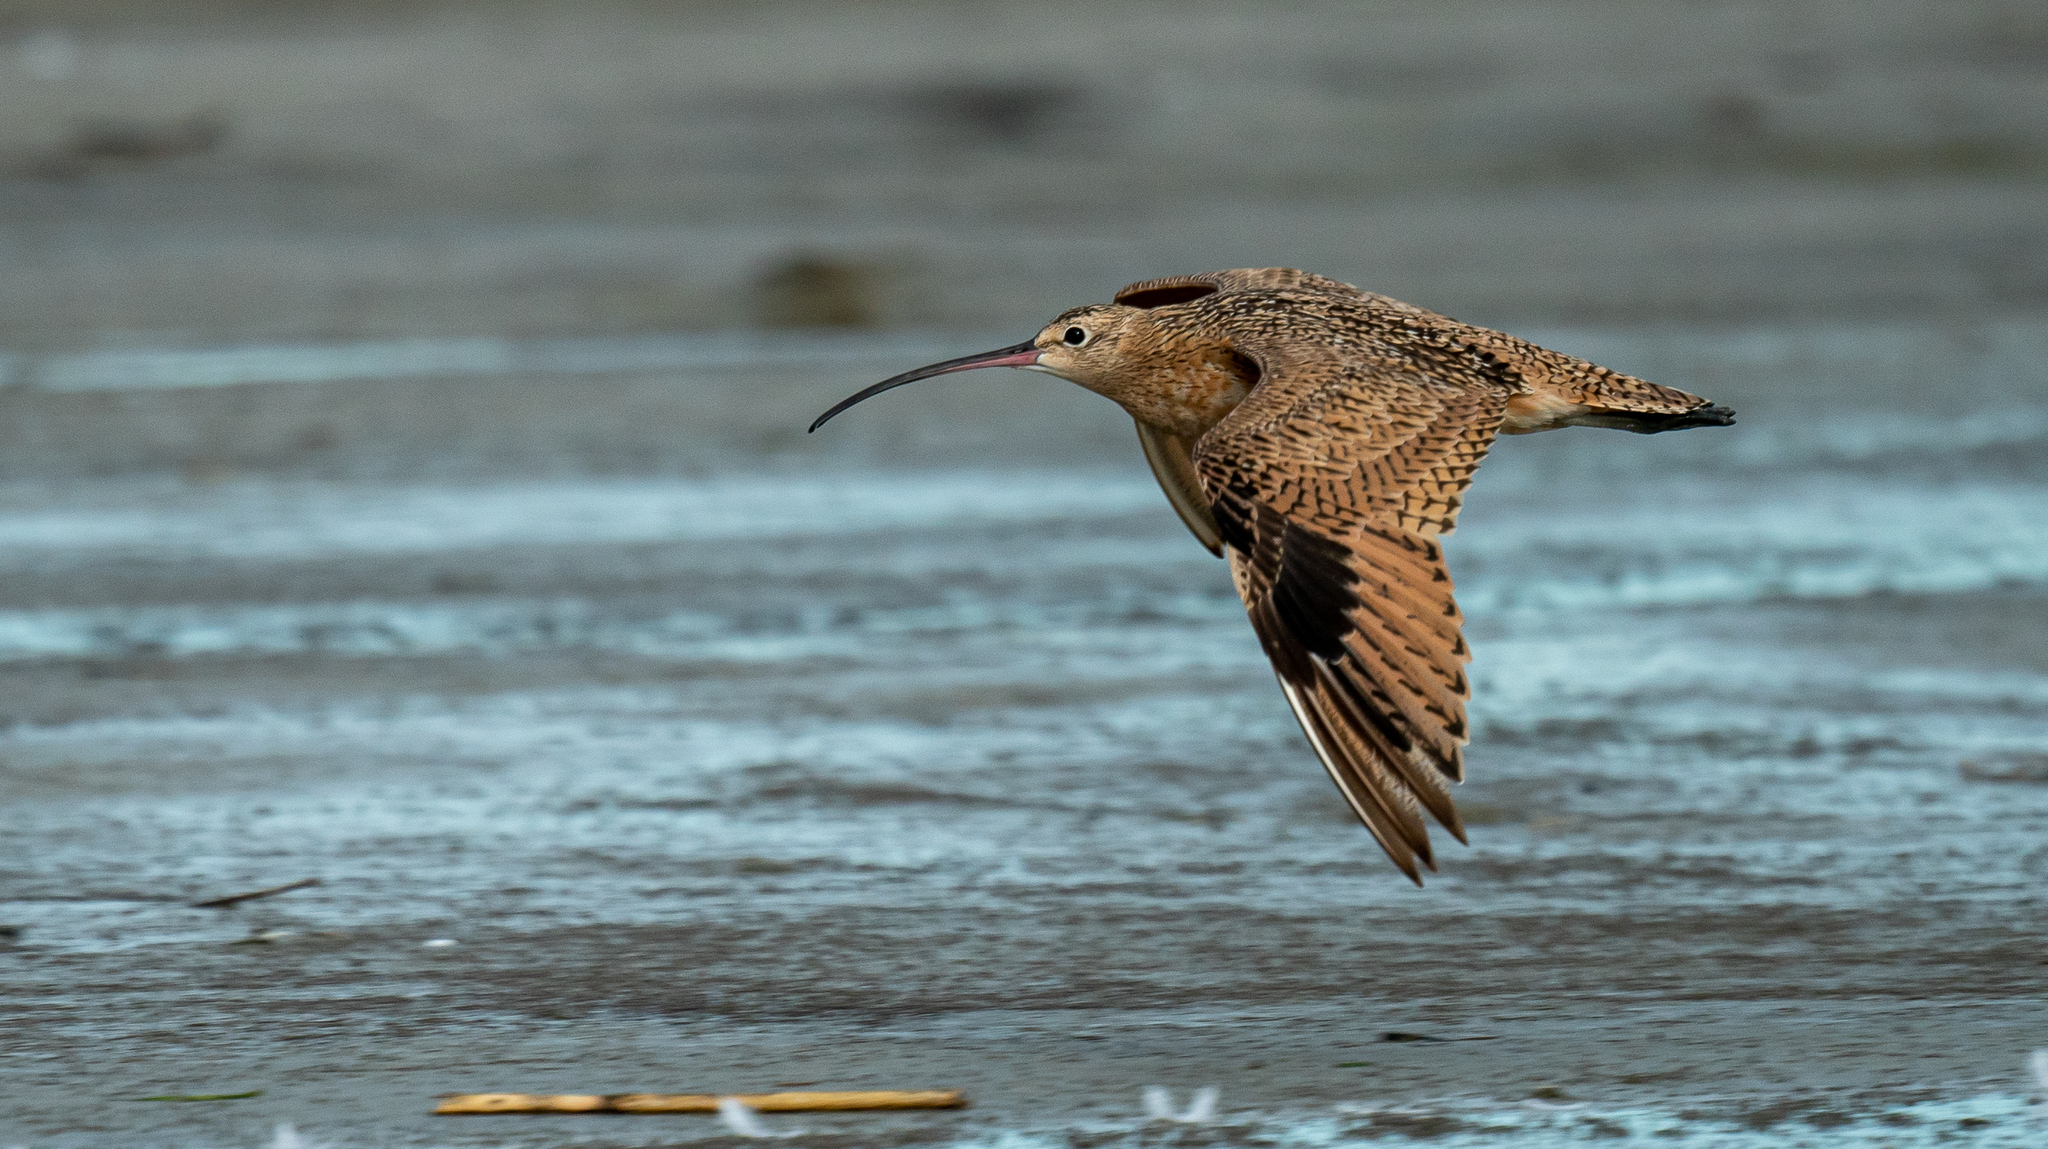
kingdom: Animalia
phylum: Chordata
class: Aves
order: Charadriiformes
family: Scolopacidae
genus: Numenius
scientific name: Numenius americanus
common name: Long-billed curlew
